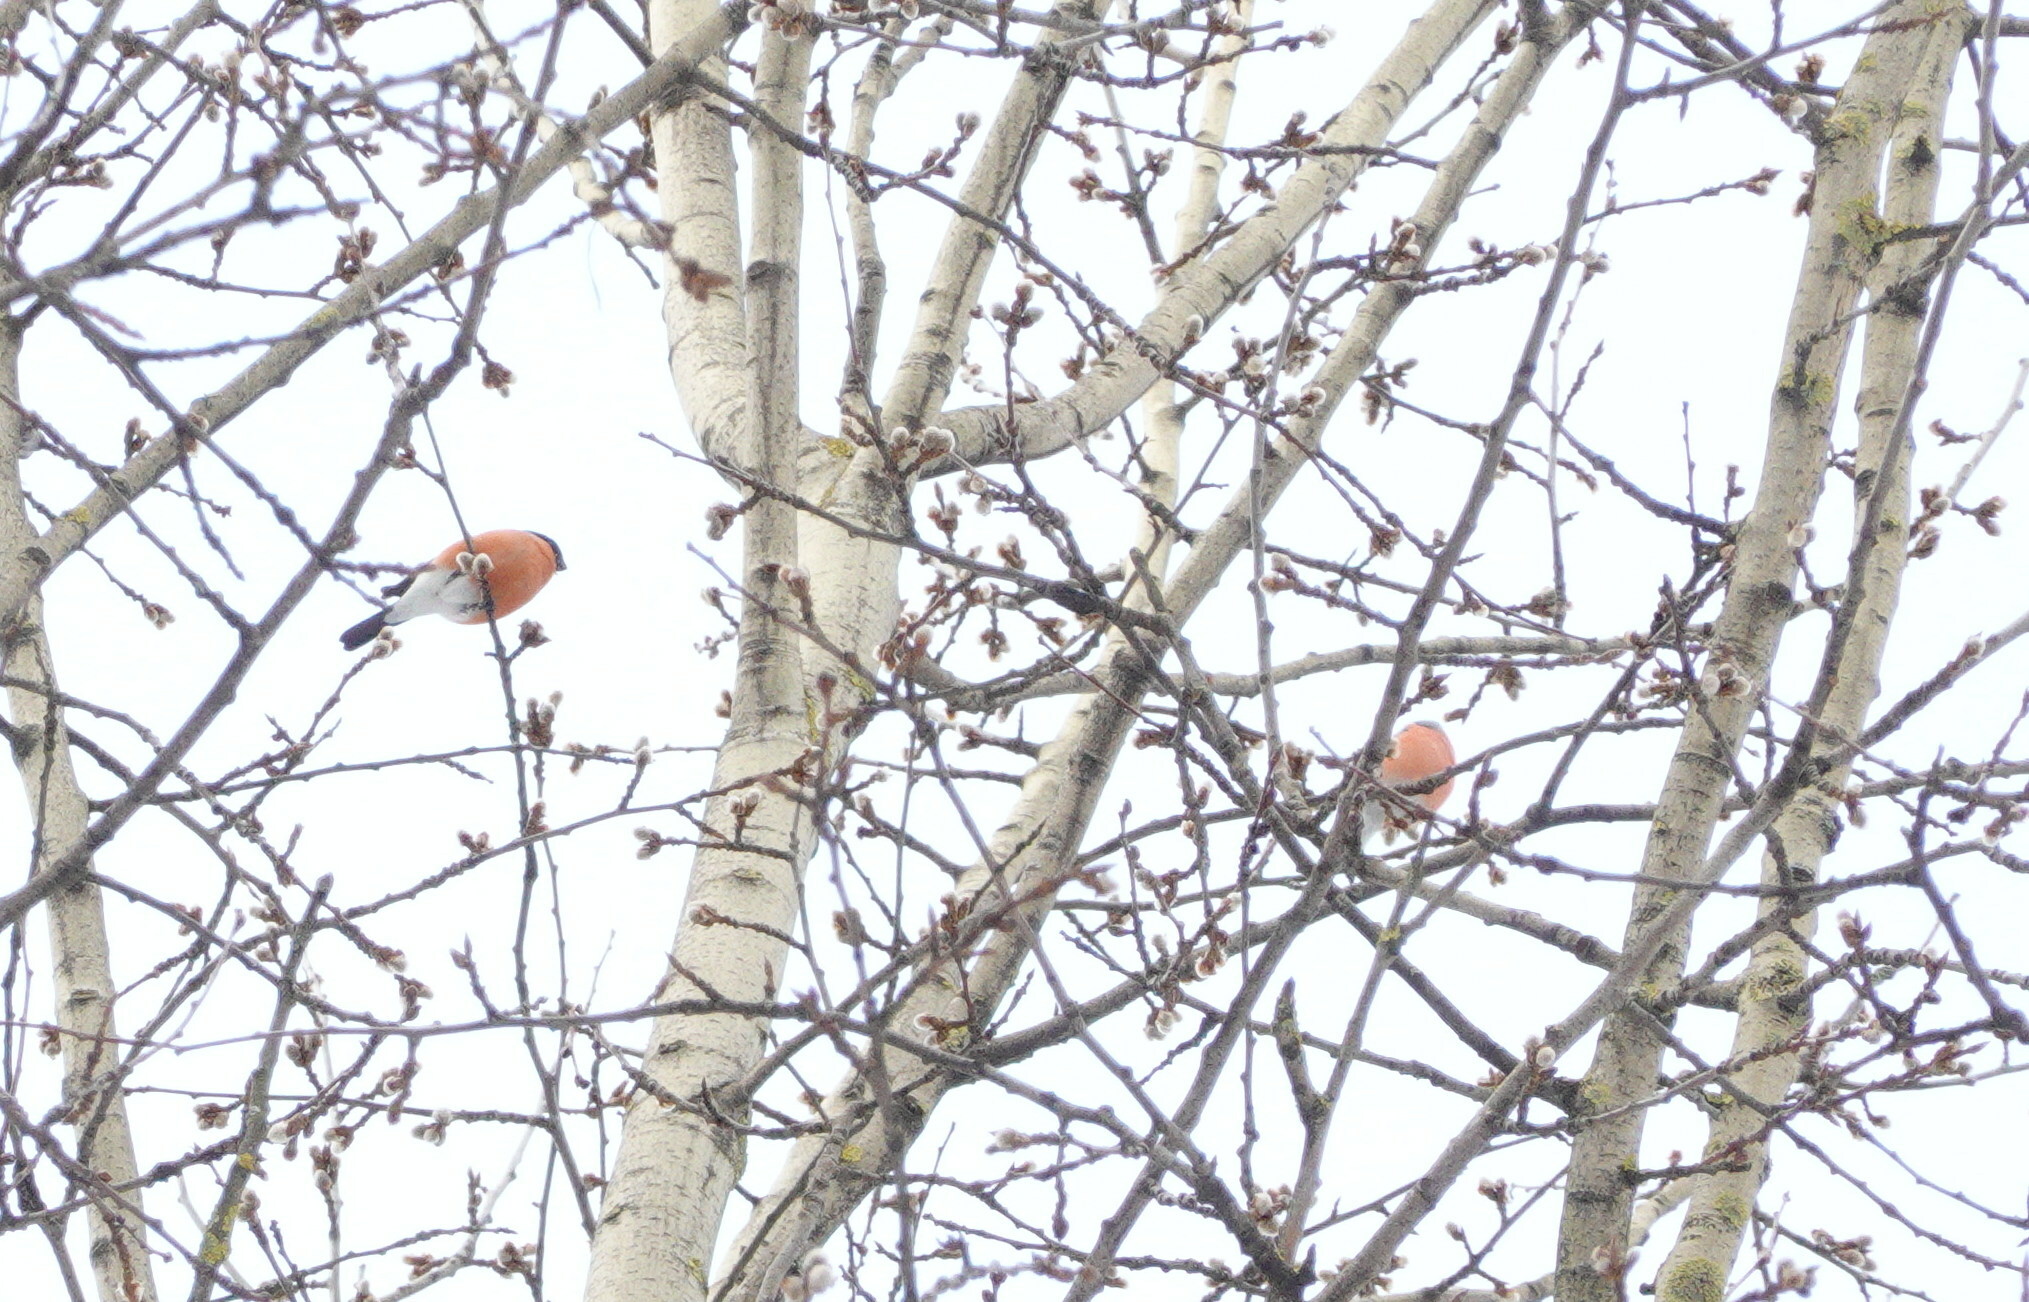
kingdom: Animalia
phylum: Chordata
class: Aves
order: Passeriformes
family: Fringillidae
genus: Pyrrhula
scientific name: Pyrrhula pyrrhula
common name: Eurasian bullfinch
